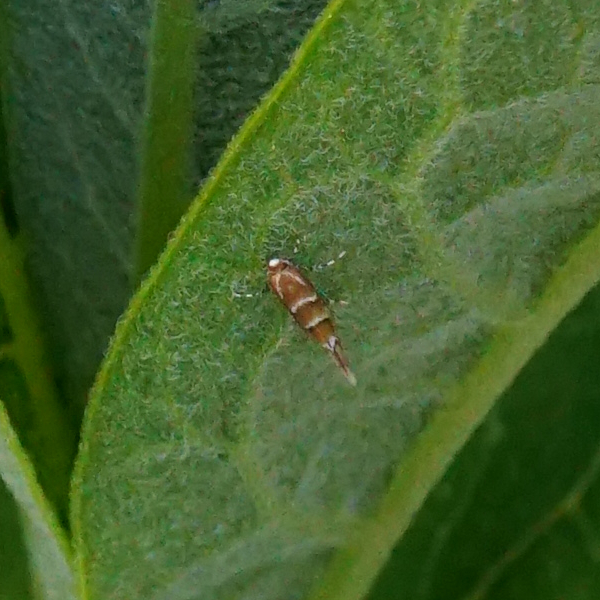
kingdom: Animalia
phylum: Arthropoda
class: Insecta
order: Lepidoptera
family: Gracillariidae
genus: Cameraria
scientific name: Cameraria ohridella
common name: Horse-chestnut leaf-miner
